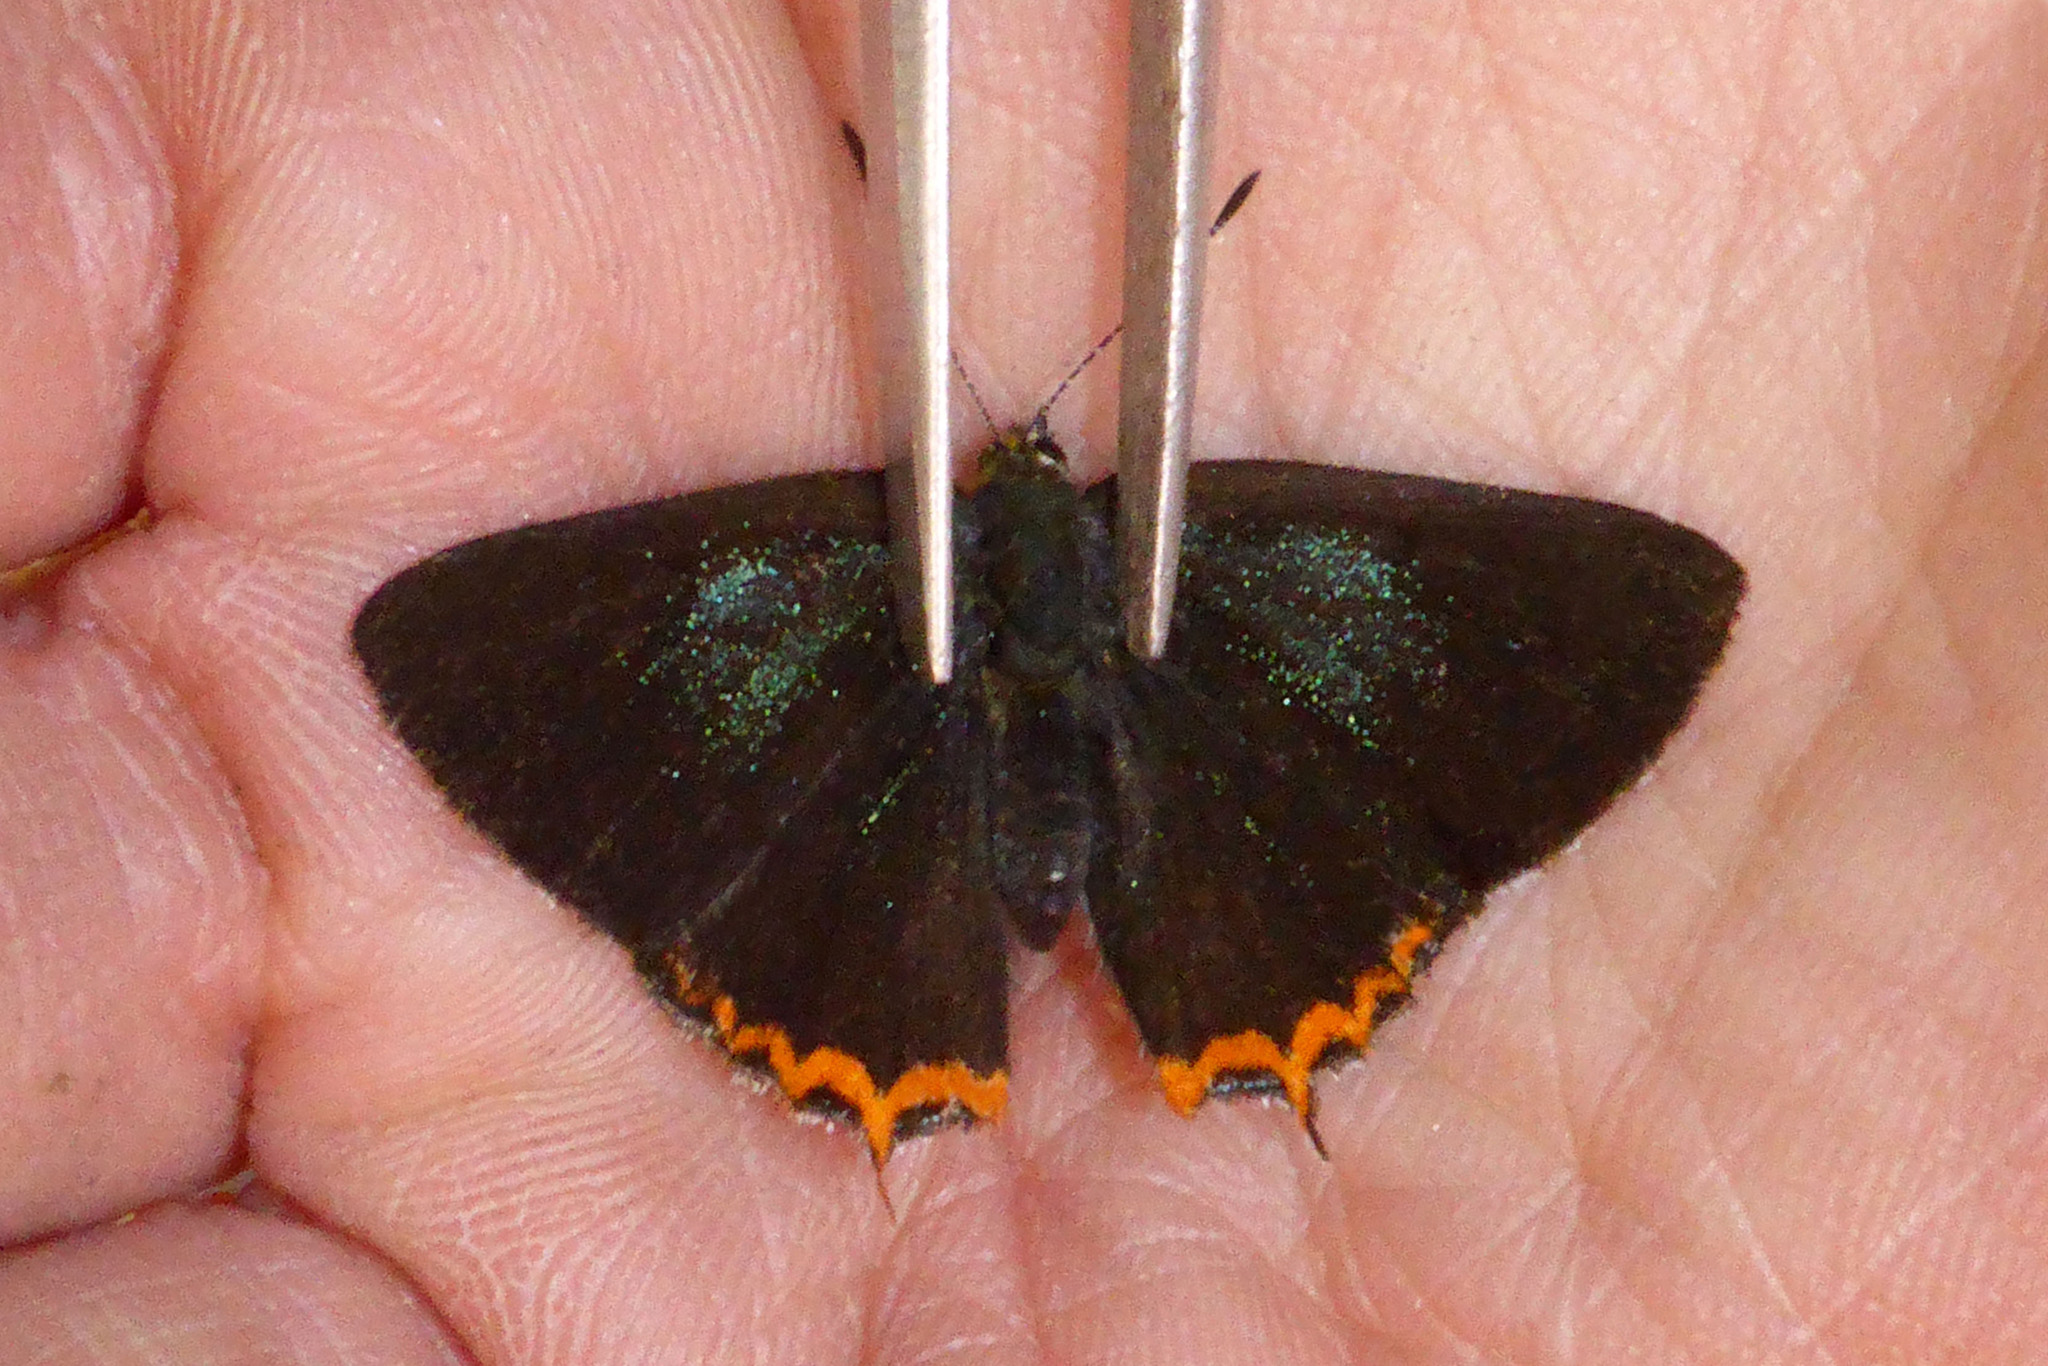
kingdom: Animalia
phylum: Arthropoda
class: Insecta
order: Lepidoptera
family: Lycaenidae
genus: Heliophorus
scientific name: Heliophorus tamu
